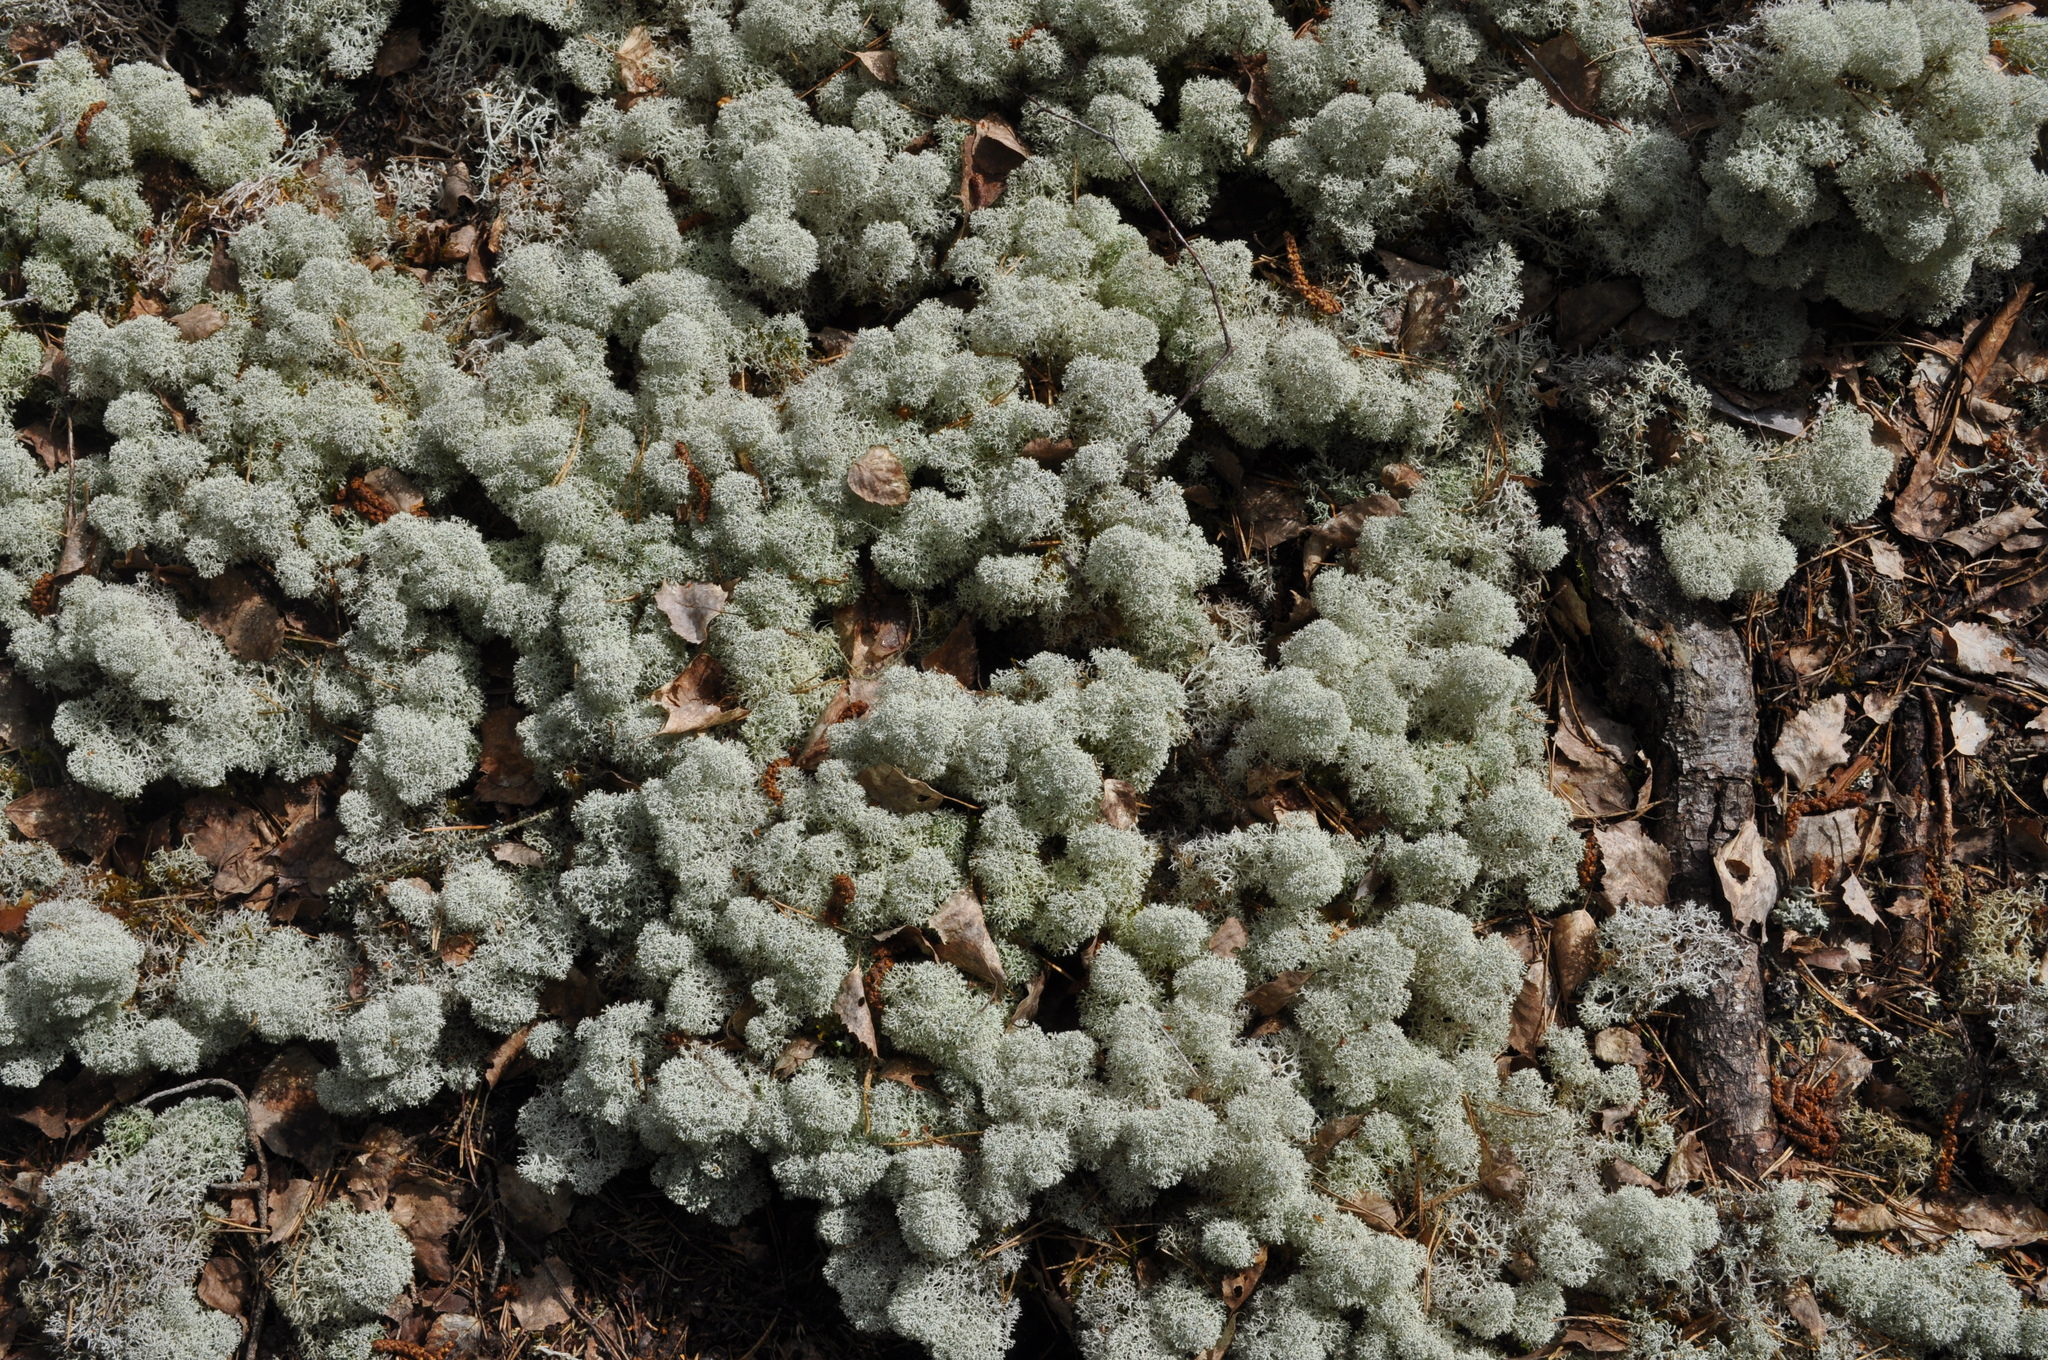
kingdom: Fungi
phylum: Ascomycota
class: Lecanoromycetes
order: Lecanorales
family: Cladoniaceae
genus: Cladonia
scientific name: Cladonia stellaris
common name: Star-tipped reindeer lichen
